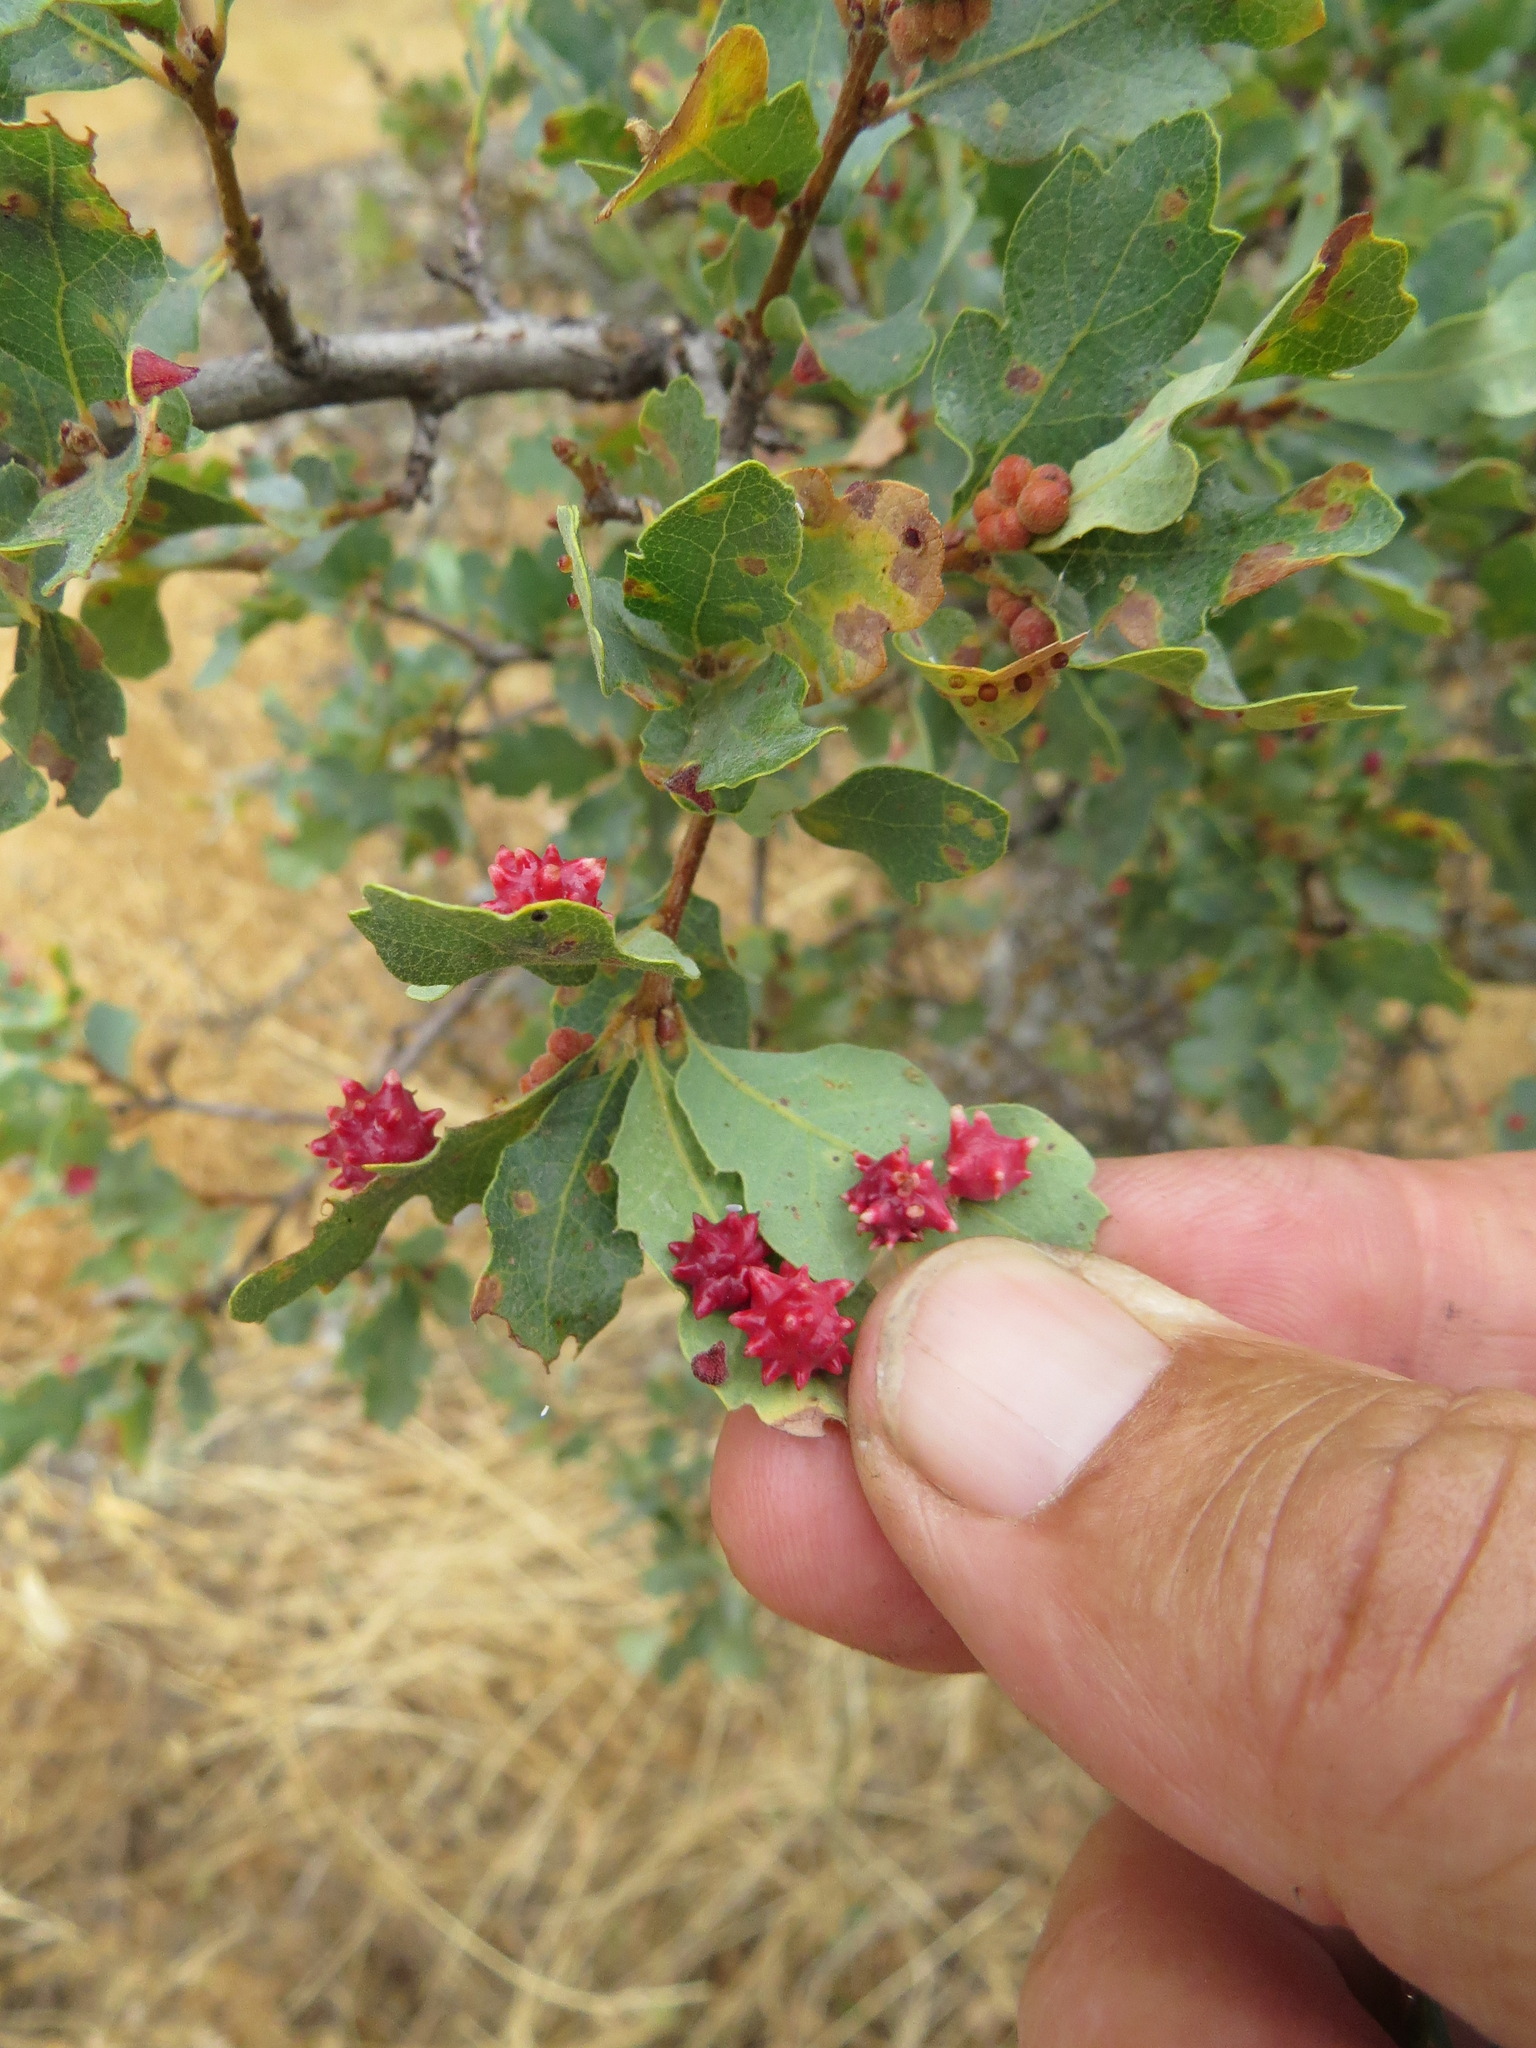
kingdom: Animalia
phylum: Arthropoda
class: Insecta
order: Hymenoptera
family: Cynipidae
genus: Cynips
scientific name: Cynips
